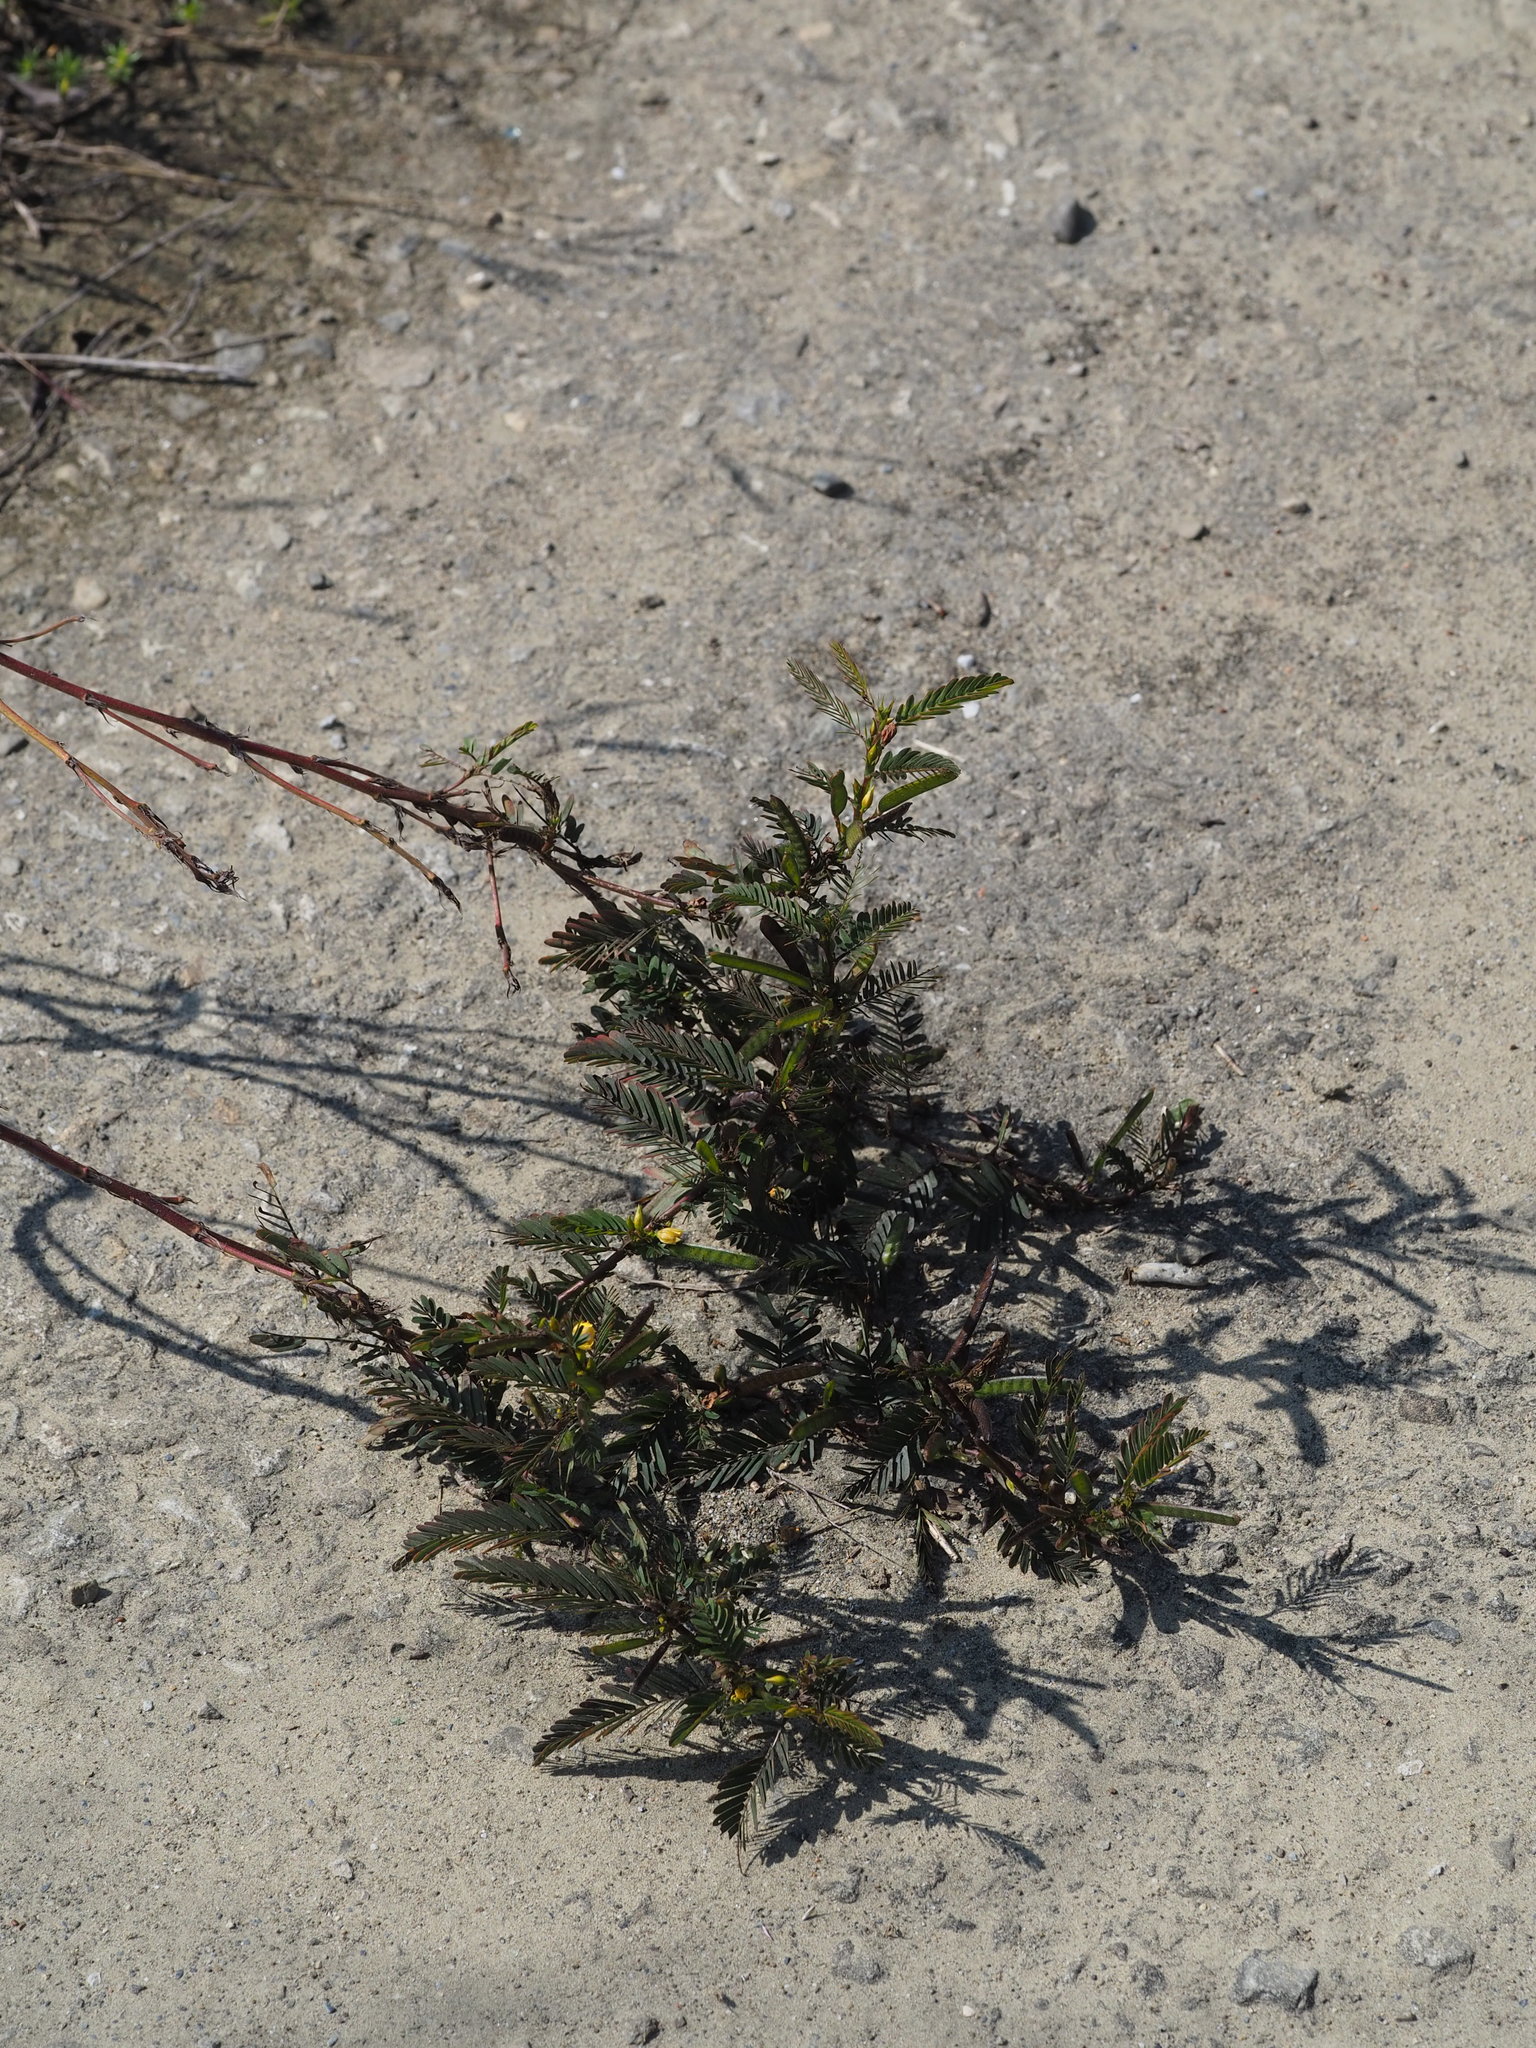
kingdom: Plantae
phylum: Tracheophyta
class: Magnoliopsida
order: Fabales
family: Fabaceae
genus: Chamaecrista
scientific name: Chamaecrista nictitans
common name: Sensitive cassia
